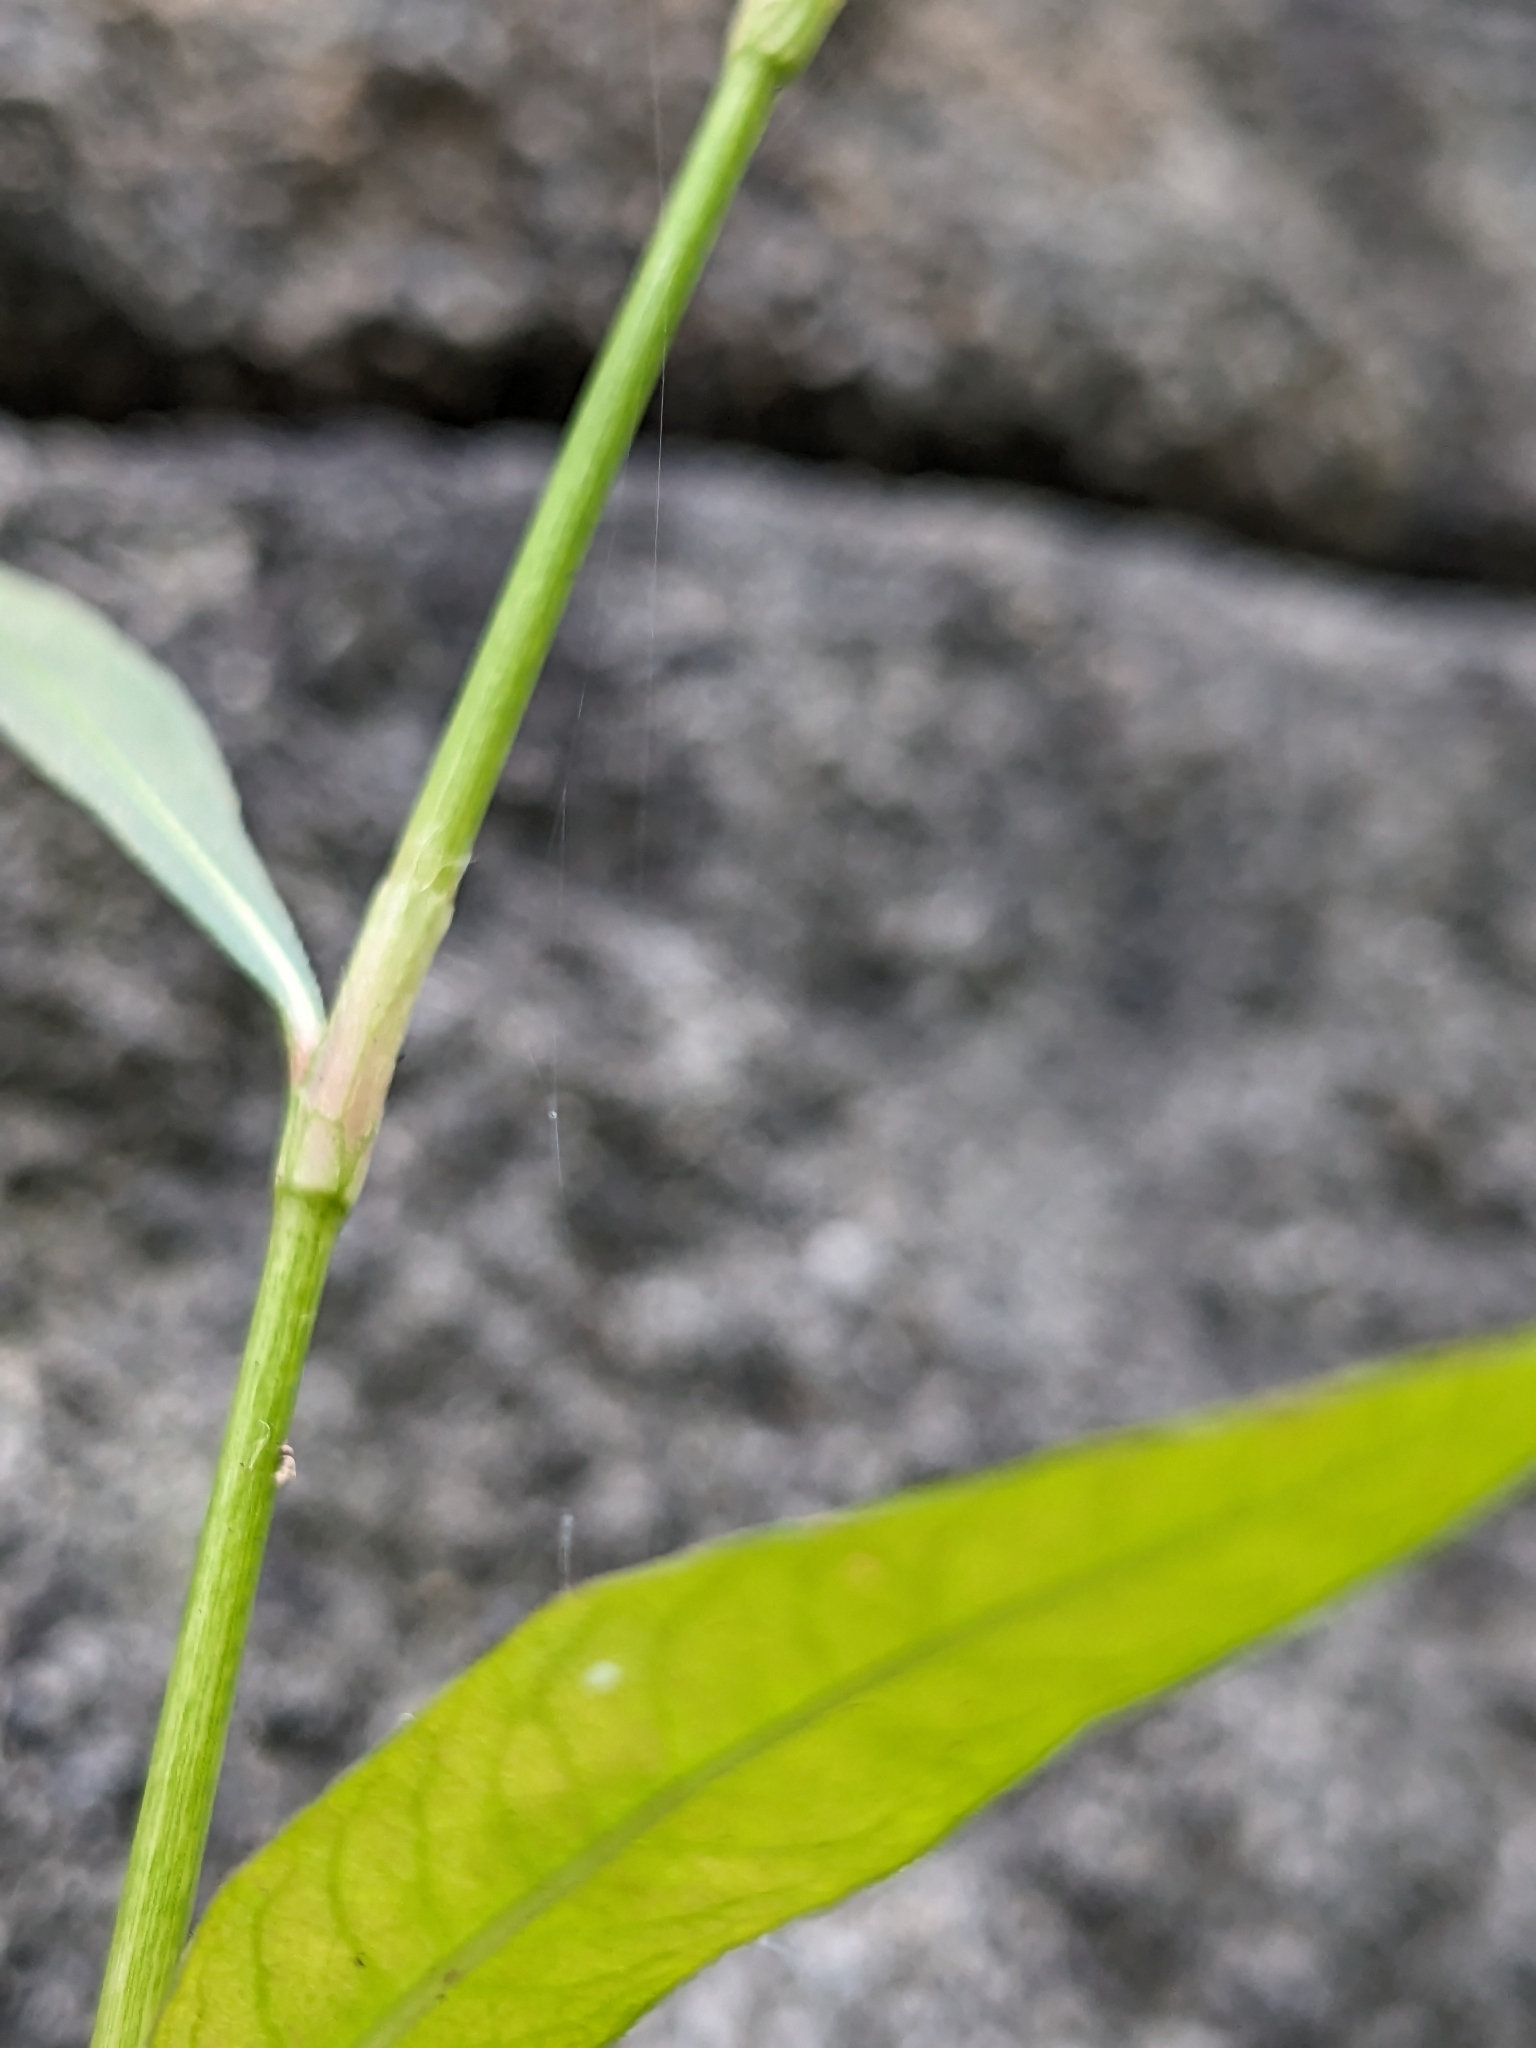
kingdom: Plantae
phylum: Tracheophyta
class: Magnoliopsida
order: Caryophyllales
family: Polygonaceae
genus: Persicaria
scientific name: Persicaria maculosa
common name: Redshank
